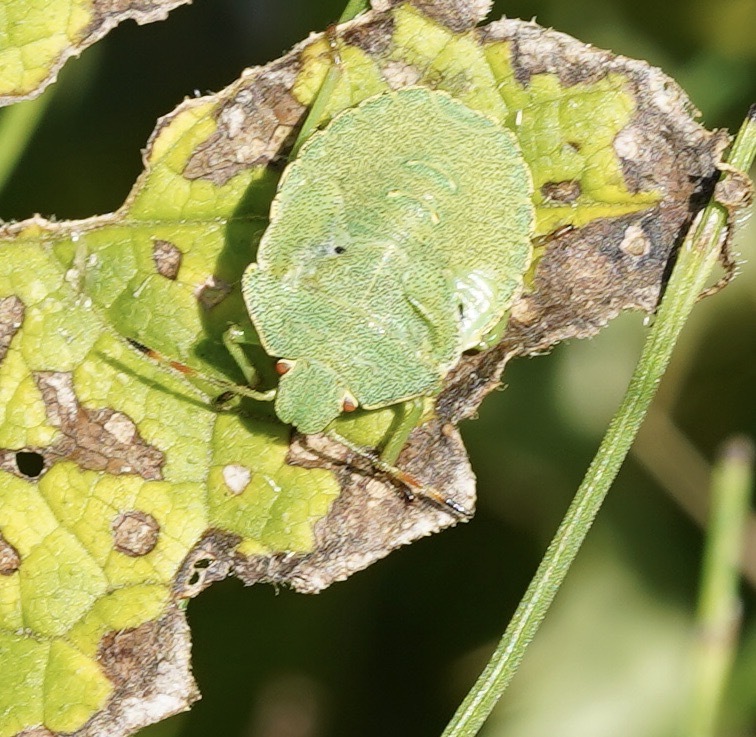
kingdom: Animalia
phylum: Arthropoda
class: Insecta
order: Hemiptera
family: Pentatomidae
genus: Palomena
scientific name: Palomena prasina
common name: Green shieldbug
